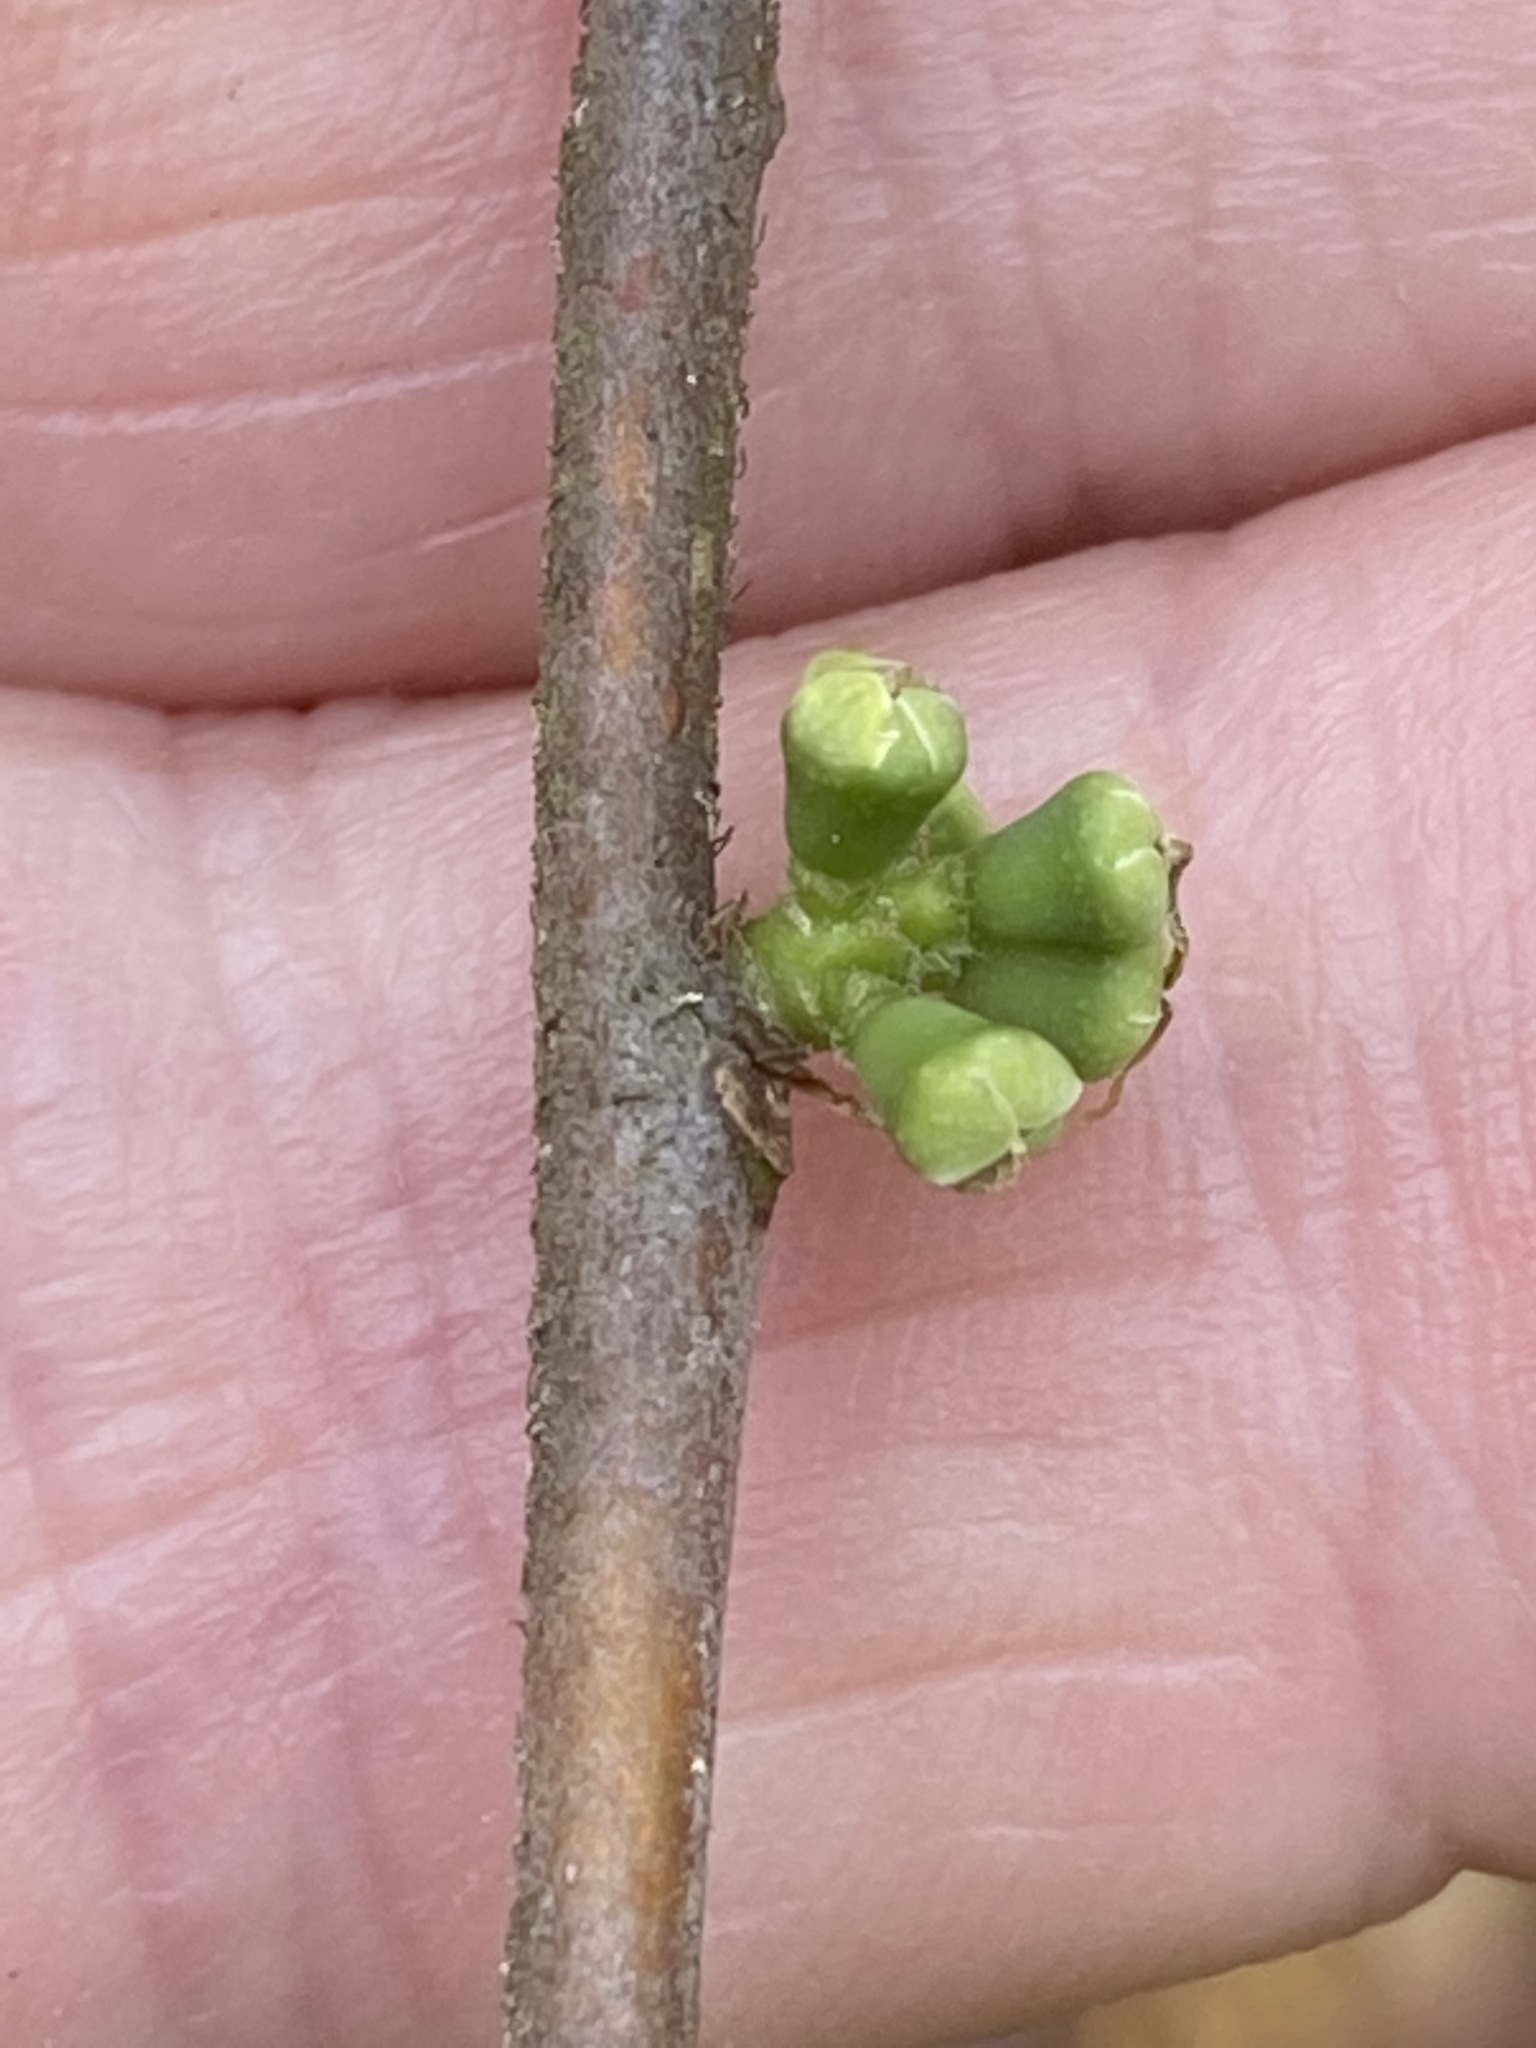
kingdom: Plantae
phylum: Tracheophyta
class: Magnoliopsida
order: Ericales
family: Symplocaceae
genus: Symplocos
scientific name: Symplocos tinctoria
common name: Horse-sugar
